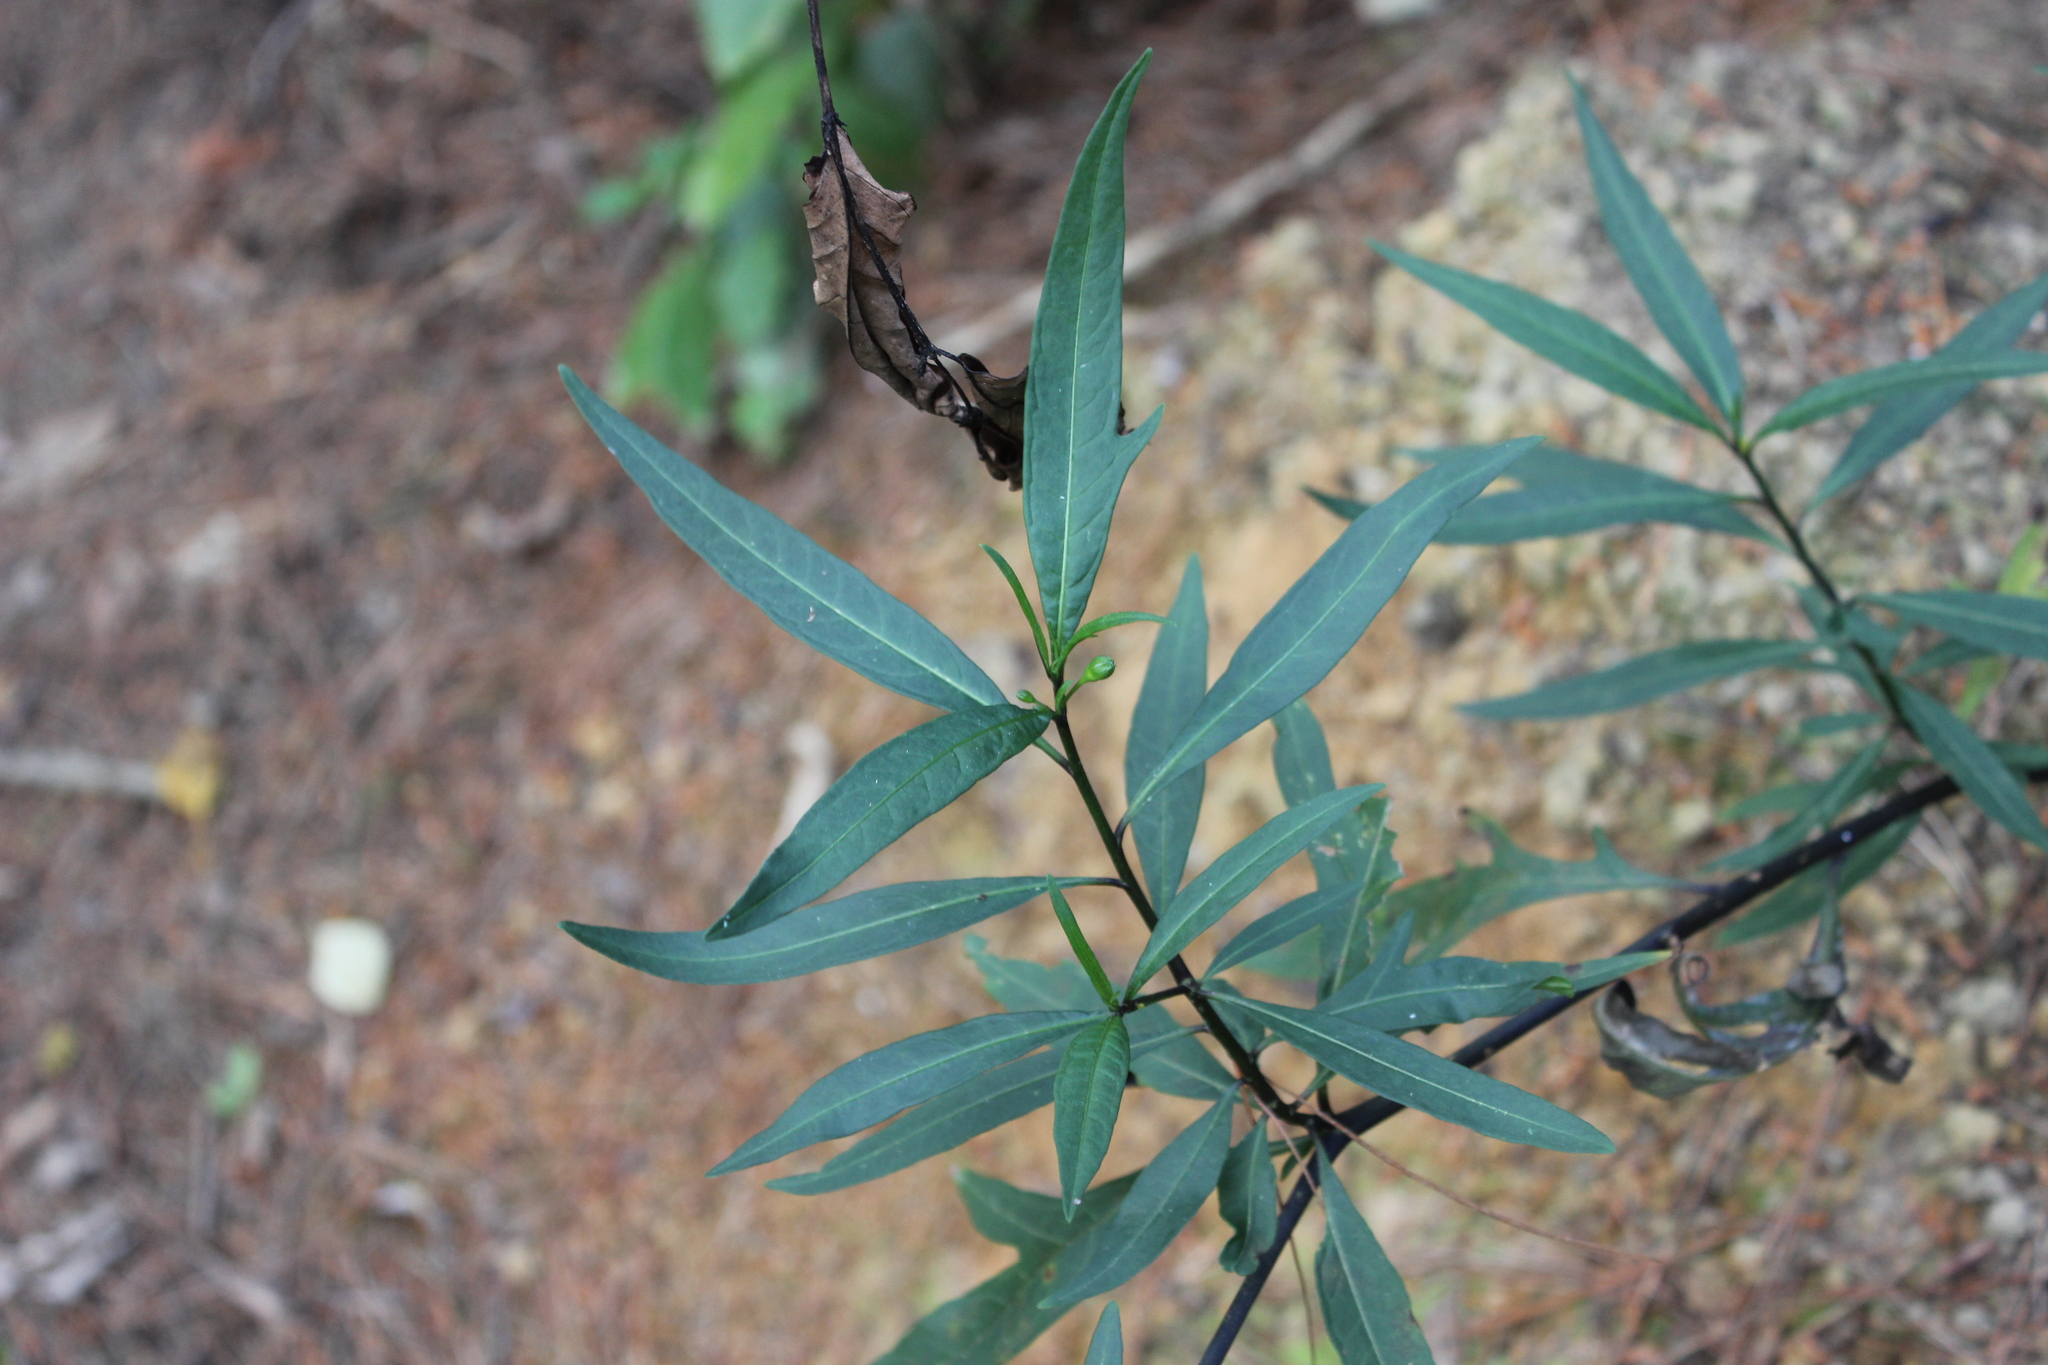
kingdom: Plantae
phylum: Tracheophyta
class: Magnoliopsida
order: Solanales
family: Solanaceae
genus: Solanum
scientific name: Solanum
